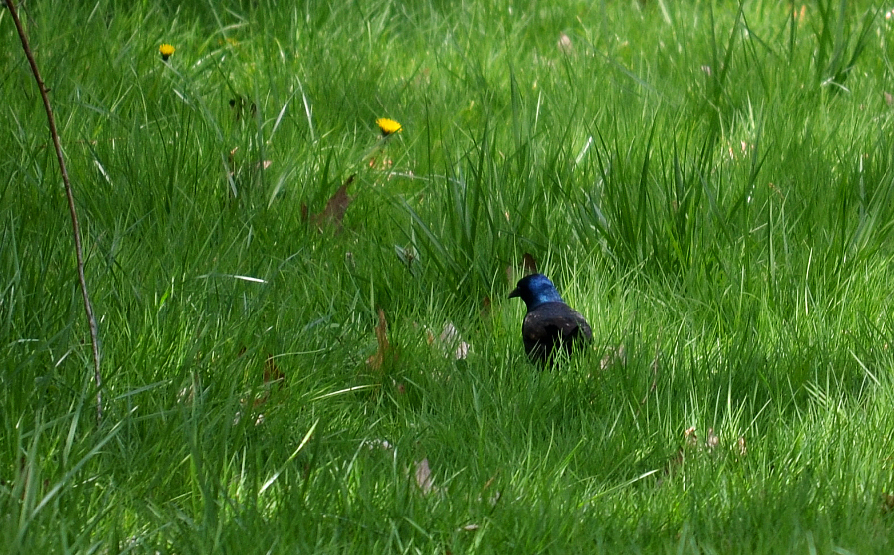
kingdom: Animalia
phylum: Chordata
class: Aves
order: Passeriformes
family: Icteridae
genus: Quiscalus
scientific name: Quiscalus quiscula
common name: Common grackle
